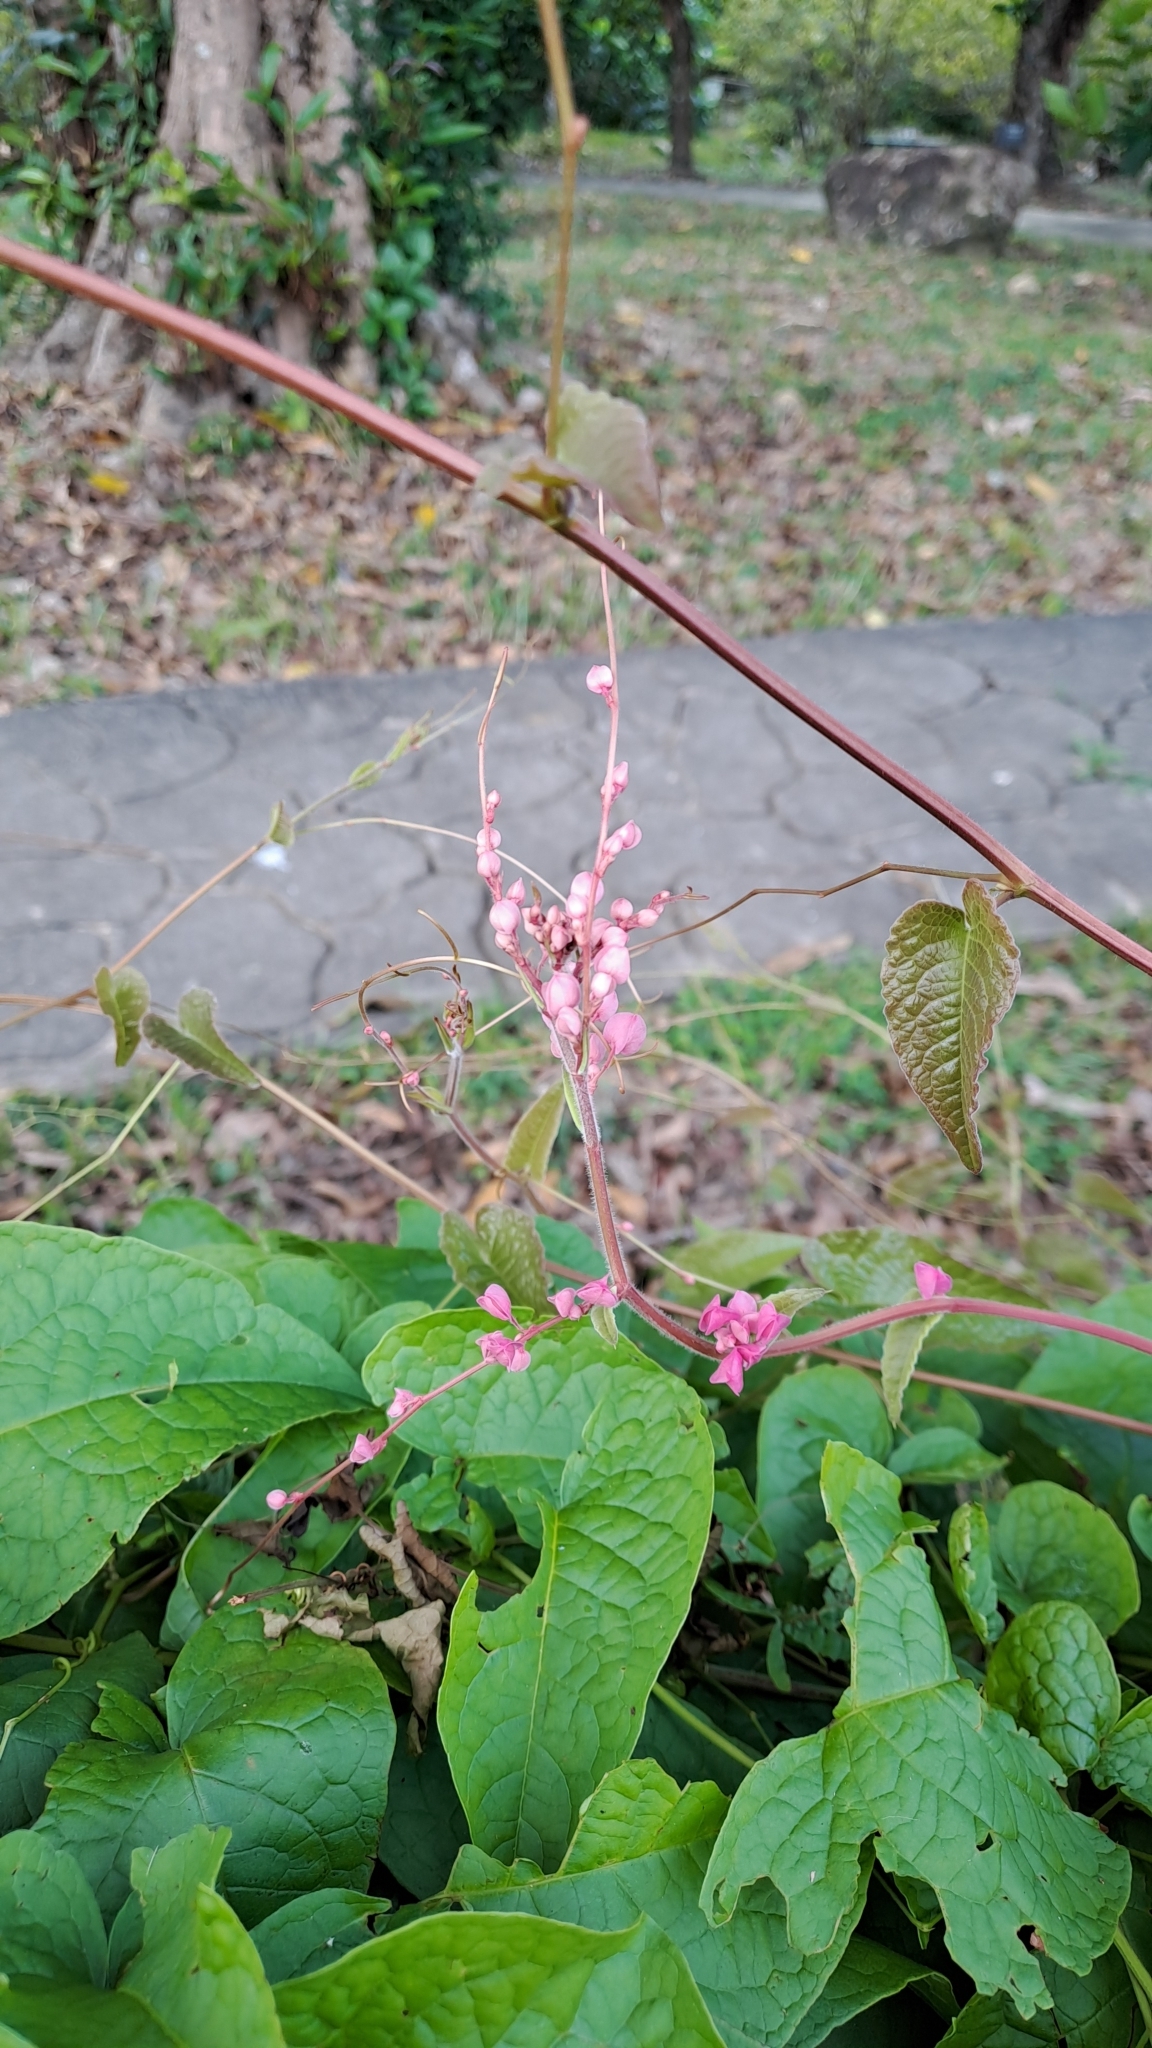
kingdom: Plantae
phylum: Tracheophyta
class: Magnoliopsida
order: Caryophyllales
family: Polygonaceae
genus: Antigonon
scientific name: Antigonon leptopus
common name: Coral vine
